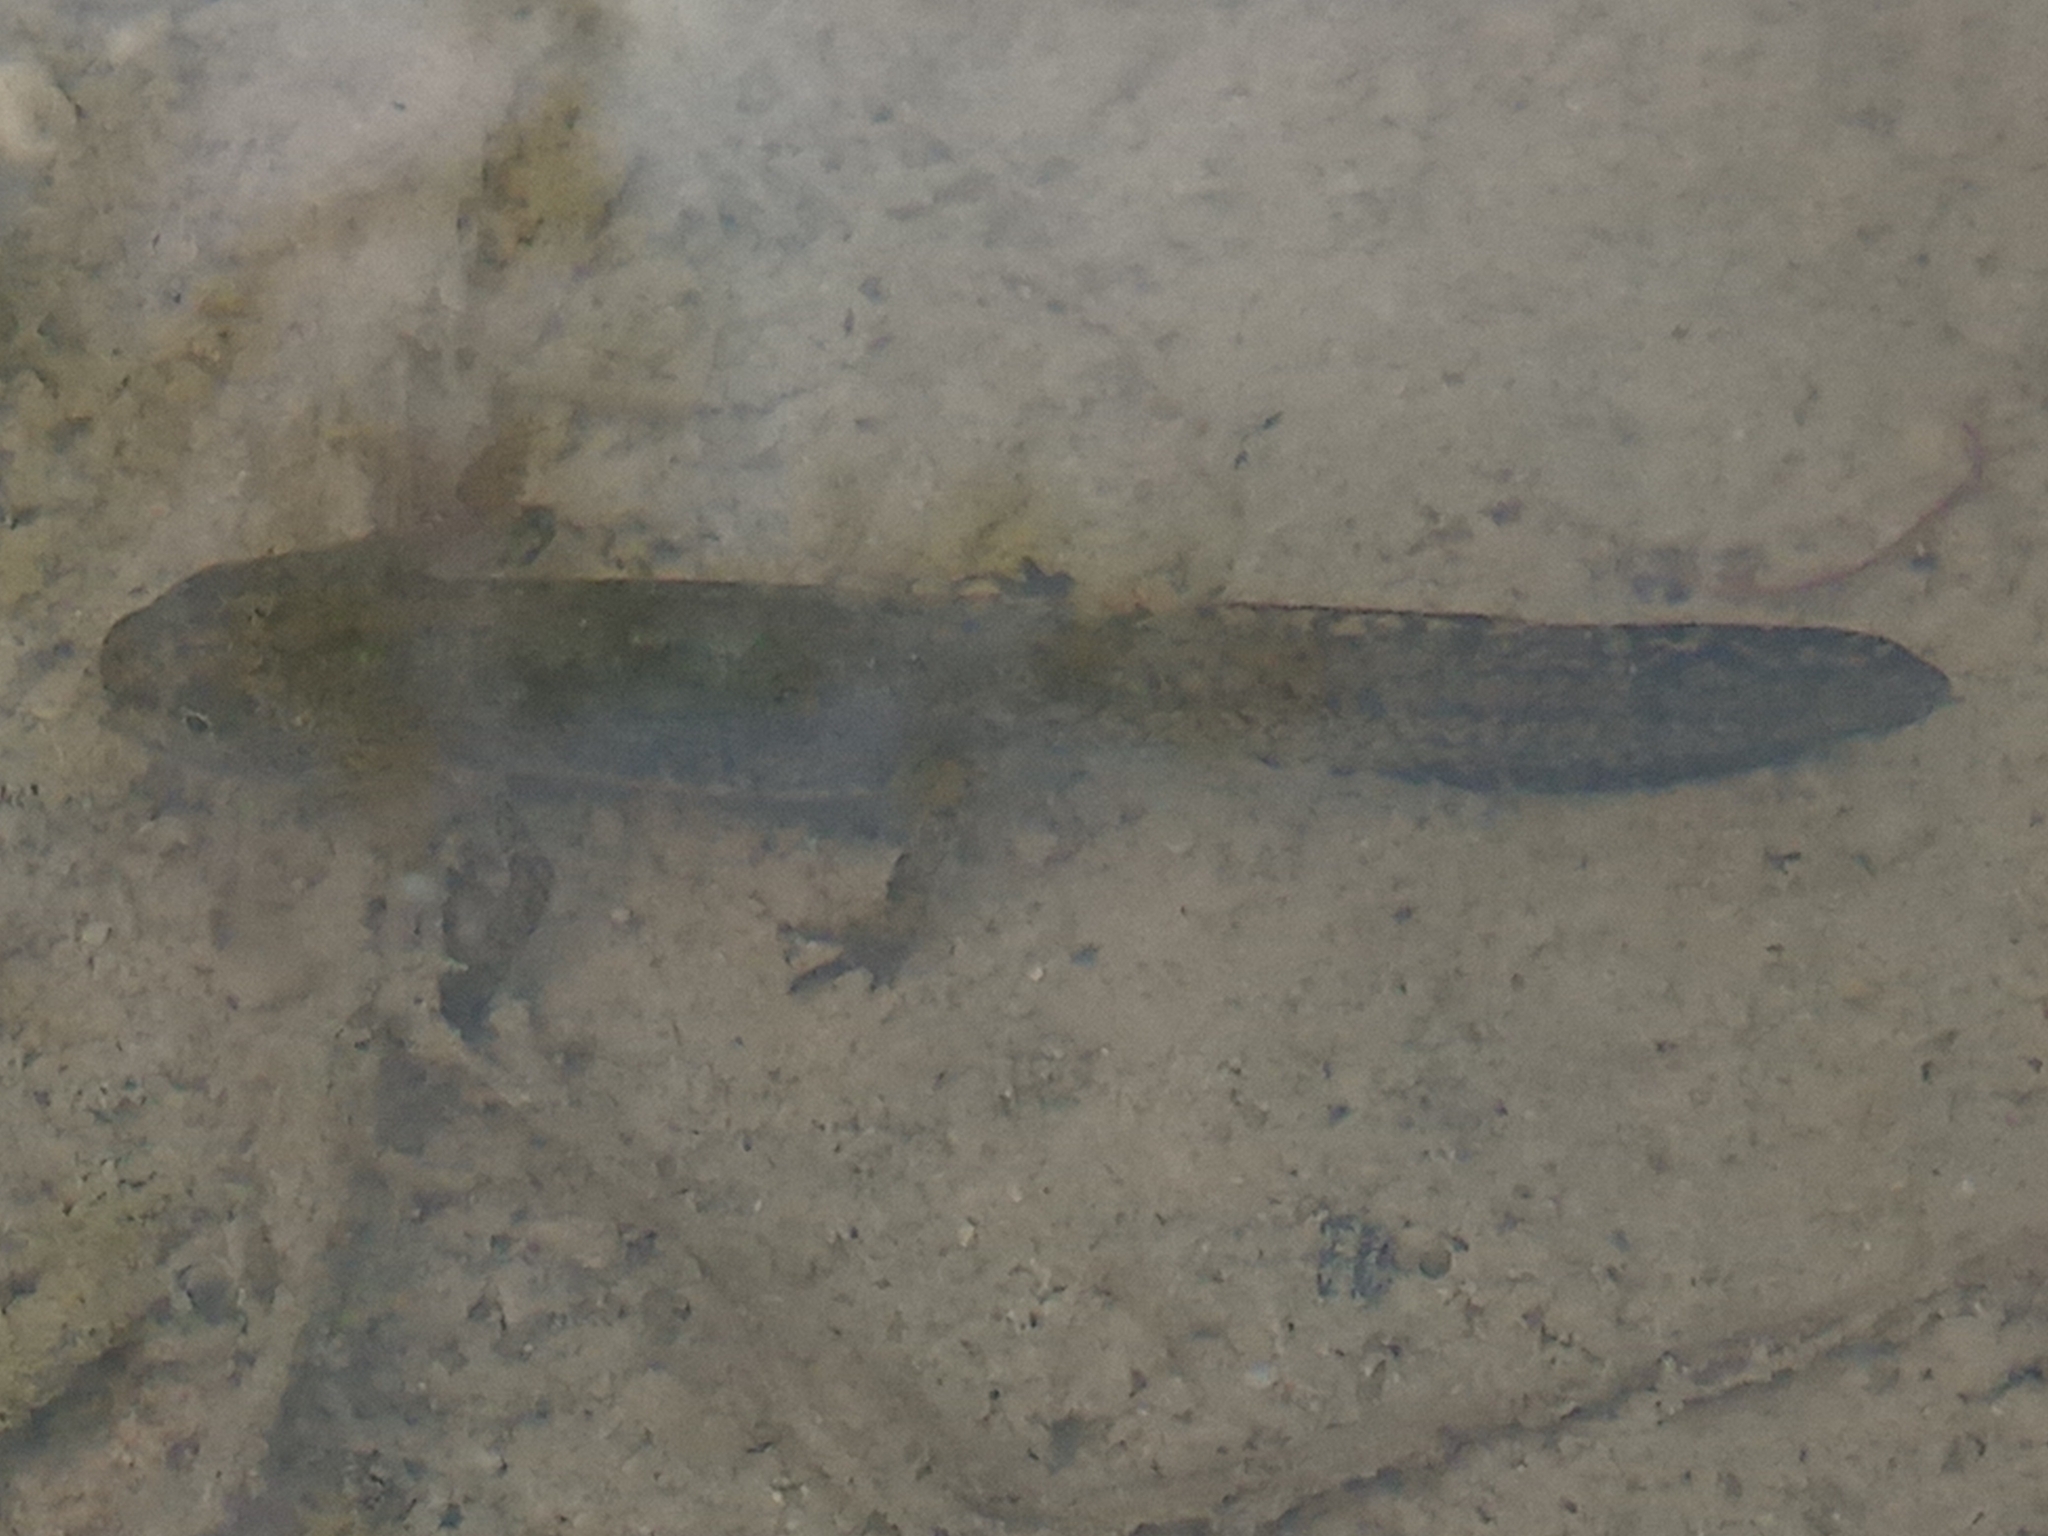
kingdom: Animalia
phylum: Chordata
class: Amphibia
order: Caudata
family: Salamandridae
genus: Ichthyosaura
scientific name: Ichthyosaura alpestris
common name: Alpine newt
